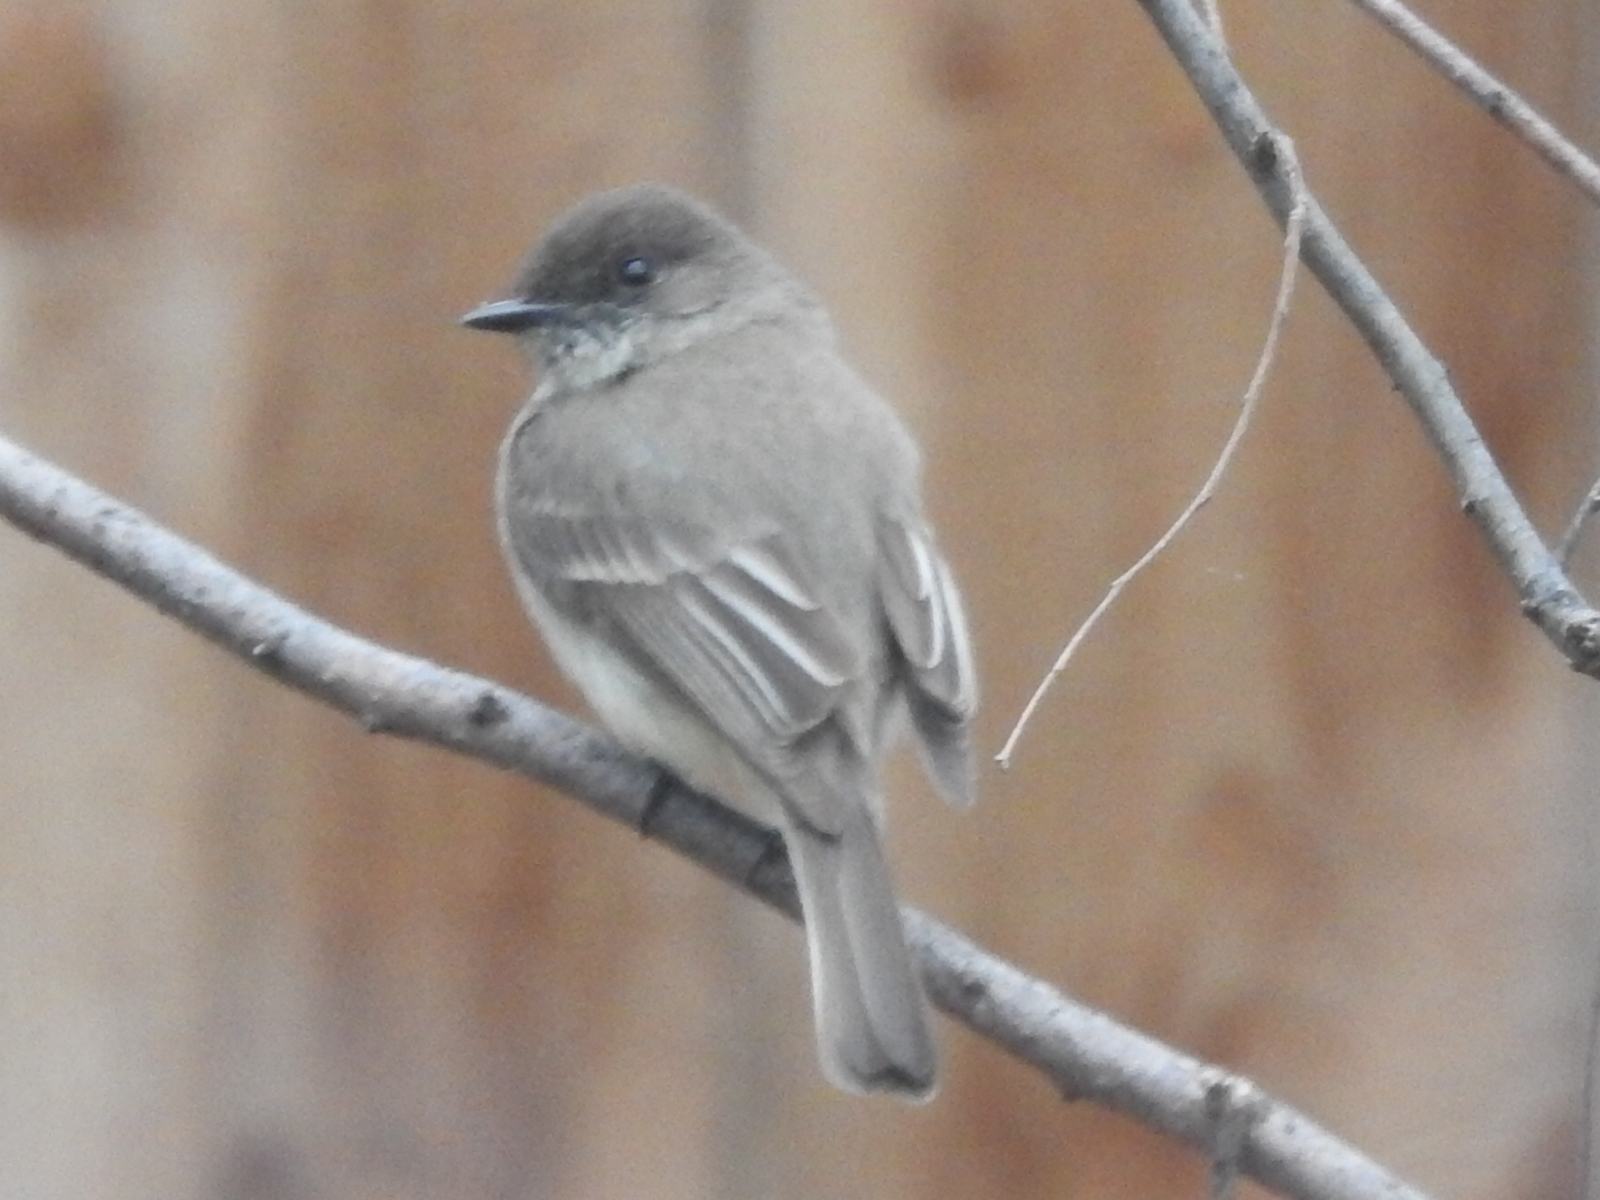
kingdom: Animalia
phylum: Chordata
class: Aves
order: Passeriformes
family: Tyrannidae
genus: Sayornis
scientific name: Sayornis phoebe
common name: Eastern phoebe
